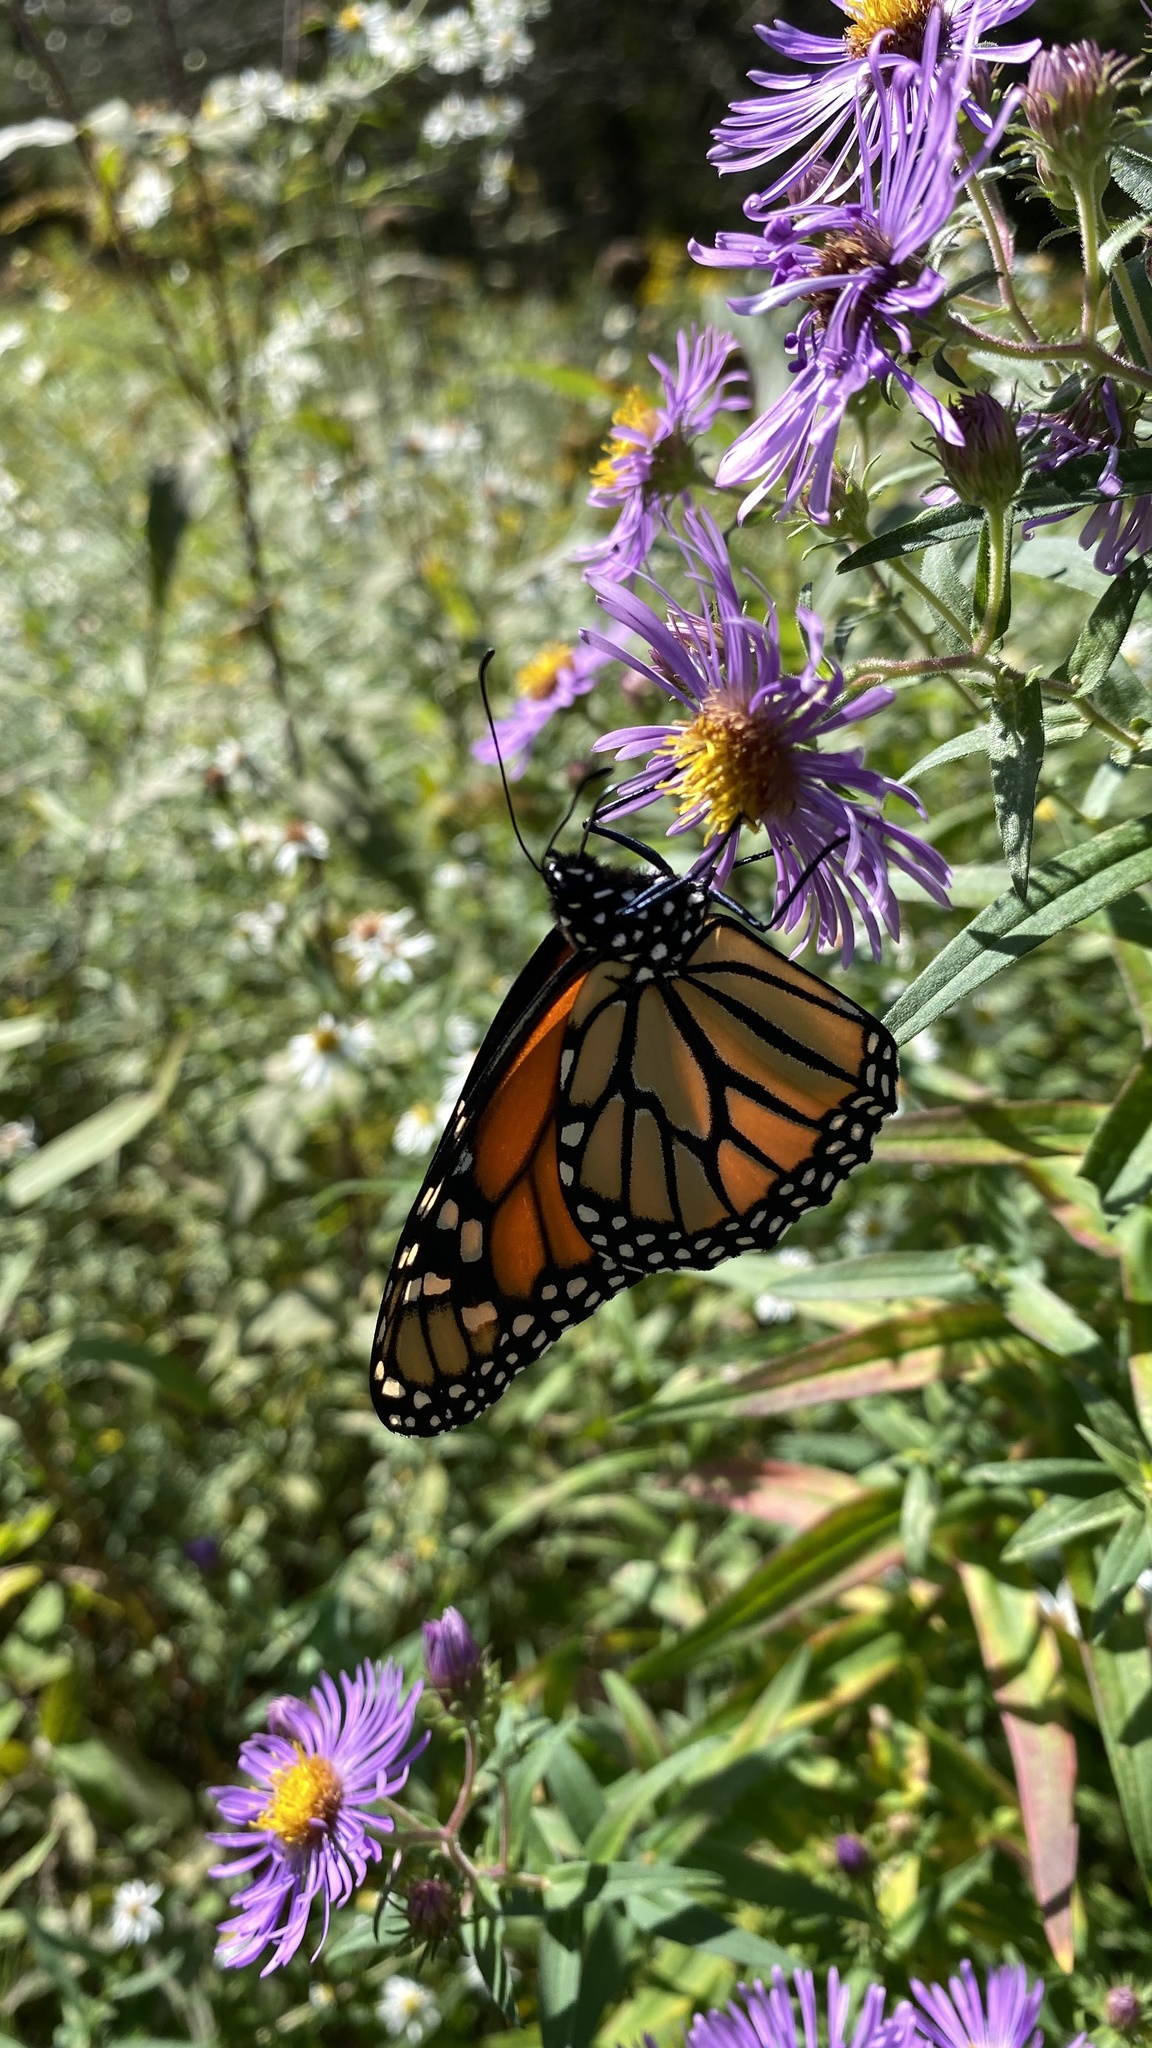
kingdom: Animalia
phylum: Arthropoda
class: Insecta
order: Lepidoptera
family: Nymphalidae
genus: Danaus
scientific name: Danaus plexippus
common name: Monarch
